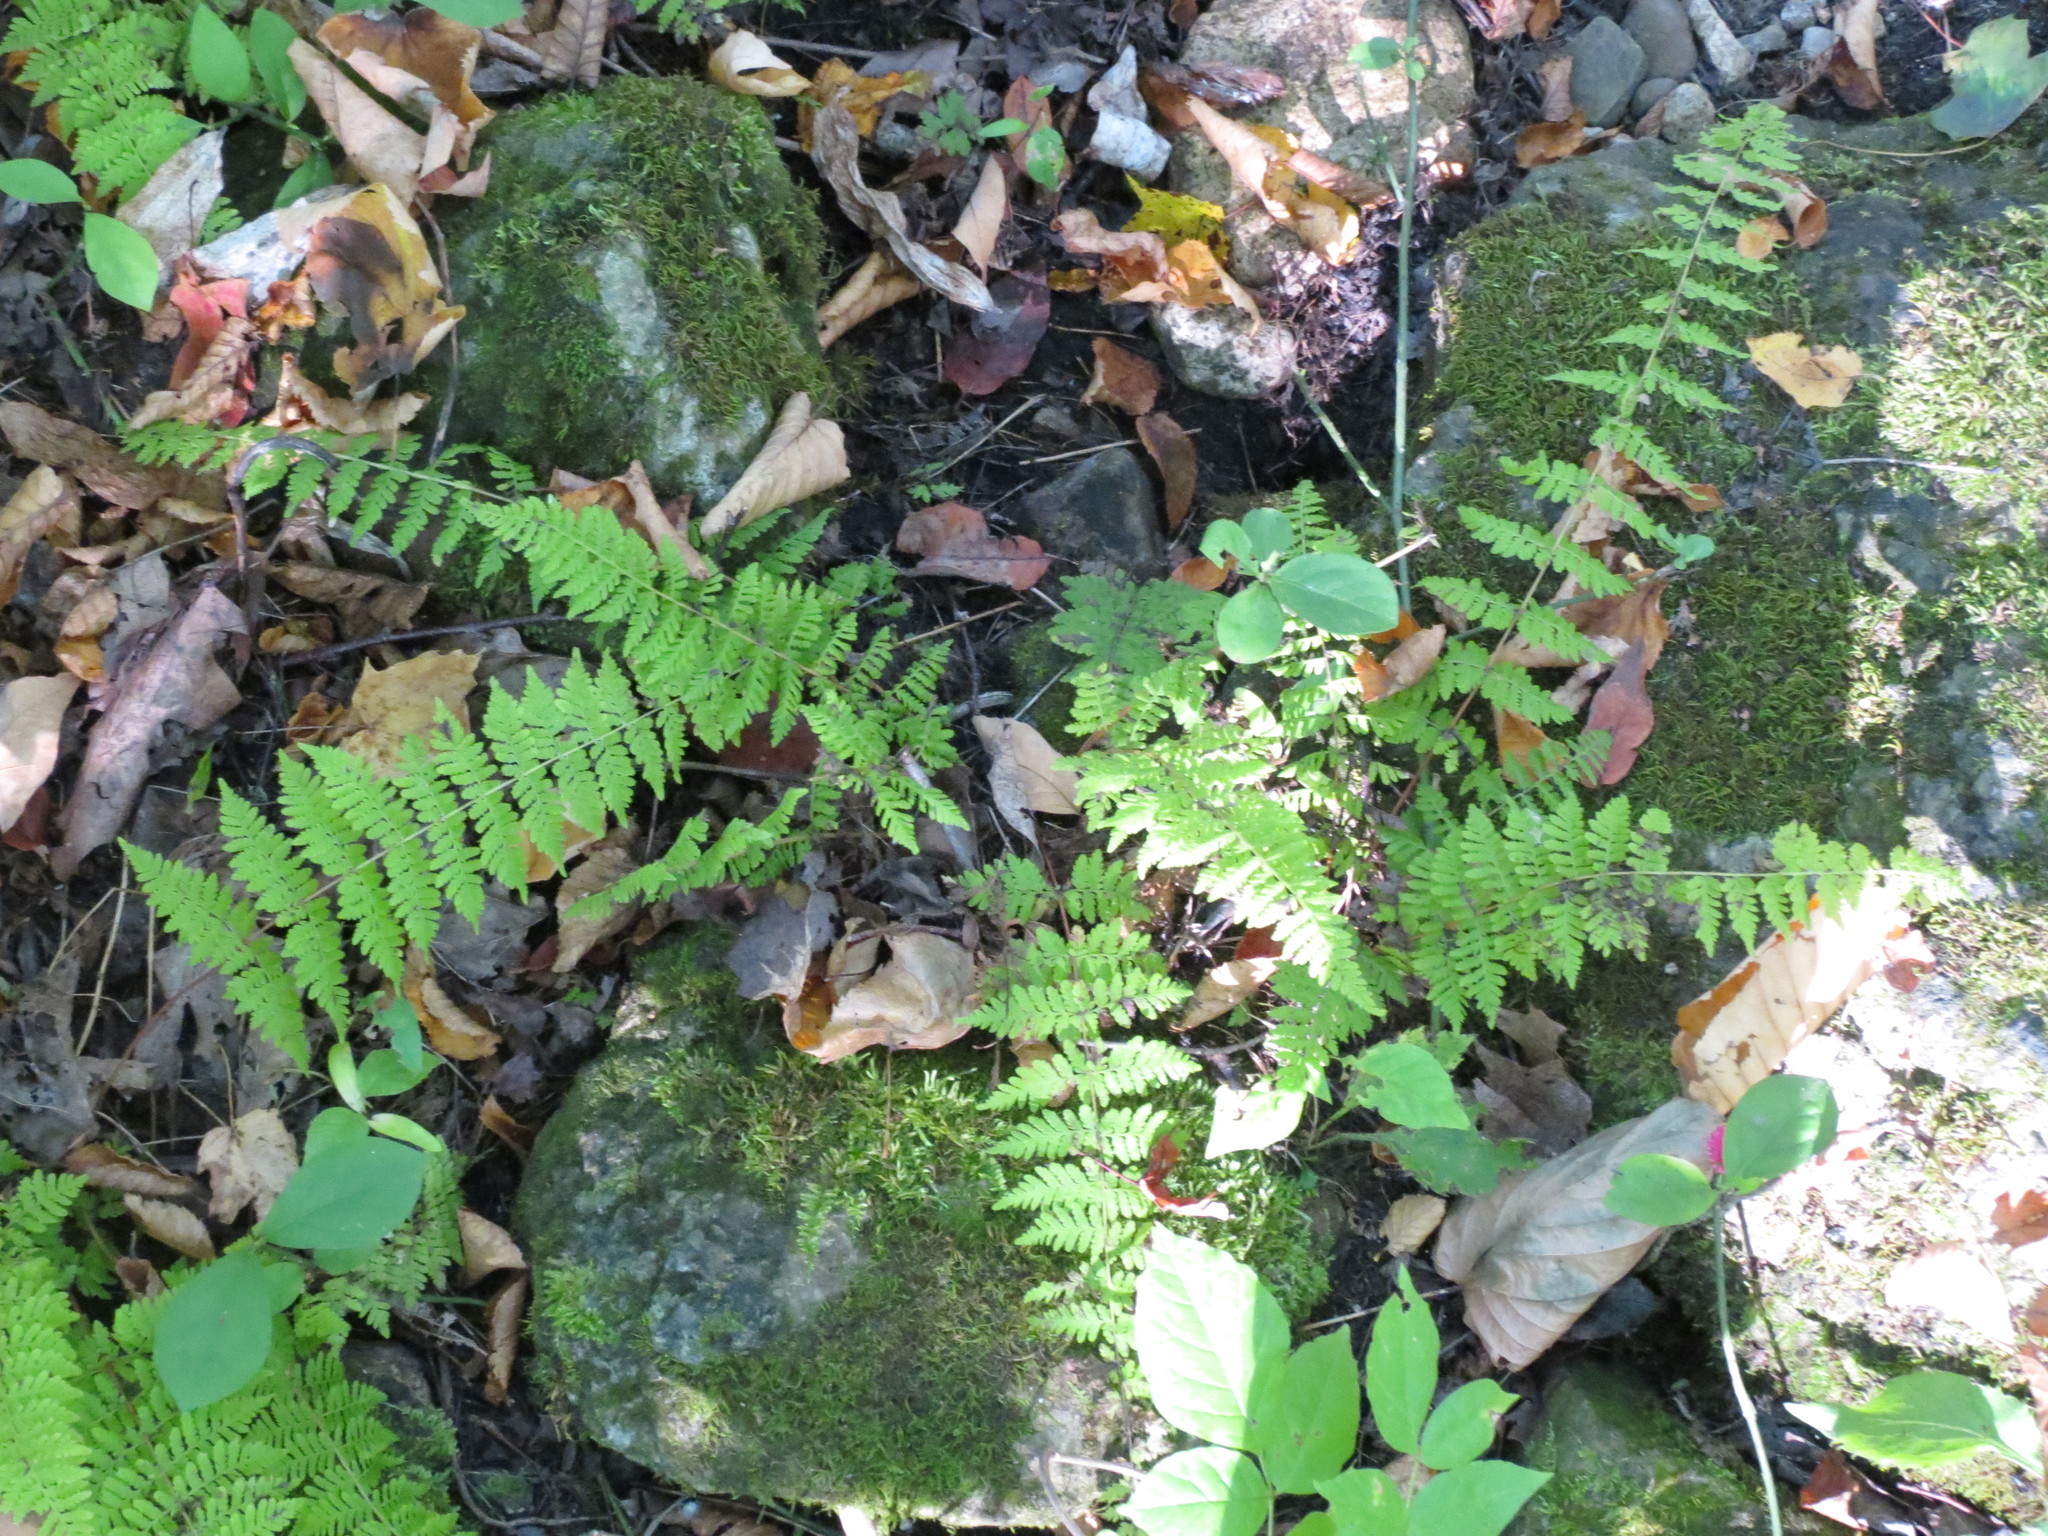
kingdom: Plantae
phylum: Tracheophyta
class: Polypodiopsida
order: Polypodiales
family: Cystopteridaceae
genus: Cystopteris
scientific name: Cystopteris bulbifera
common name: Bulblet bladder fern
